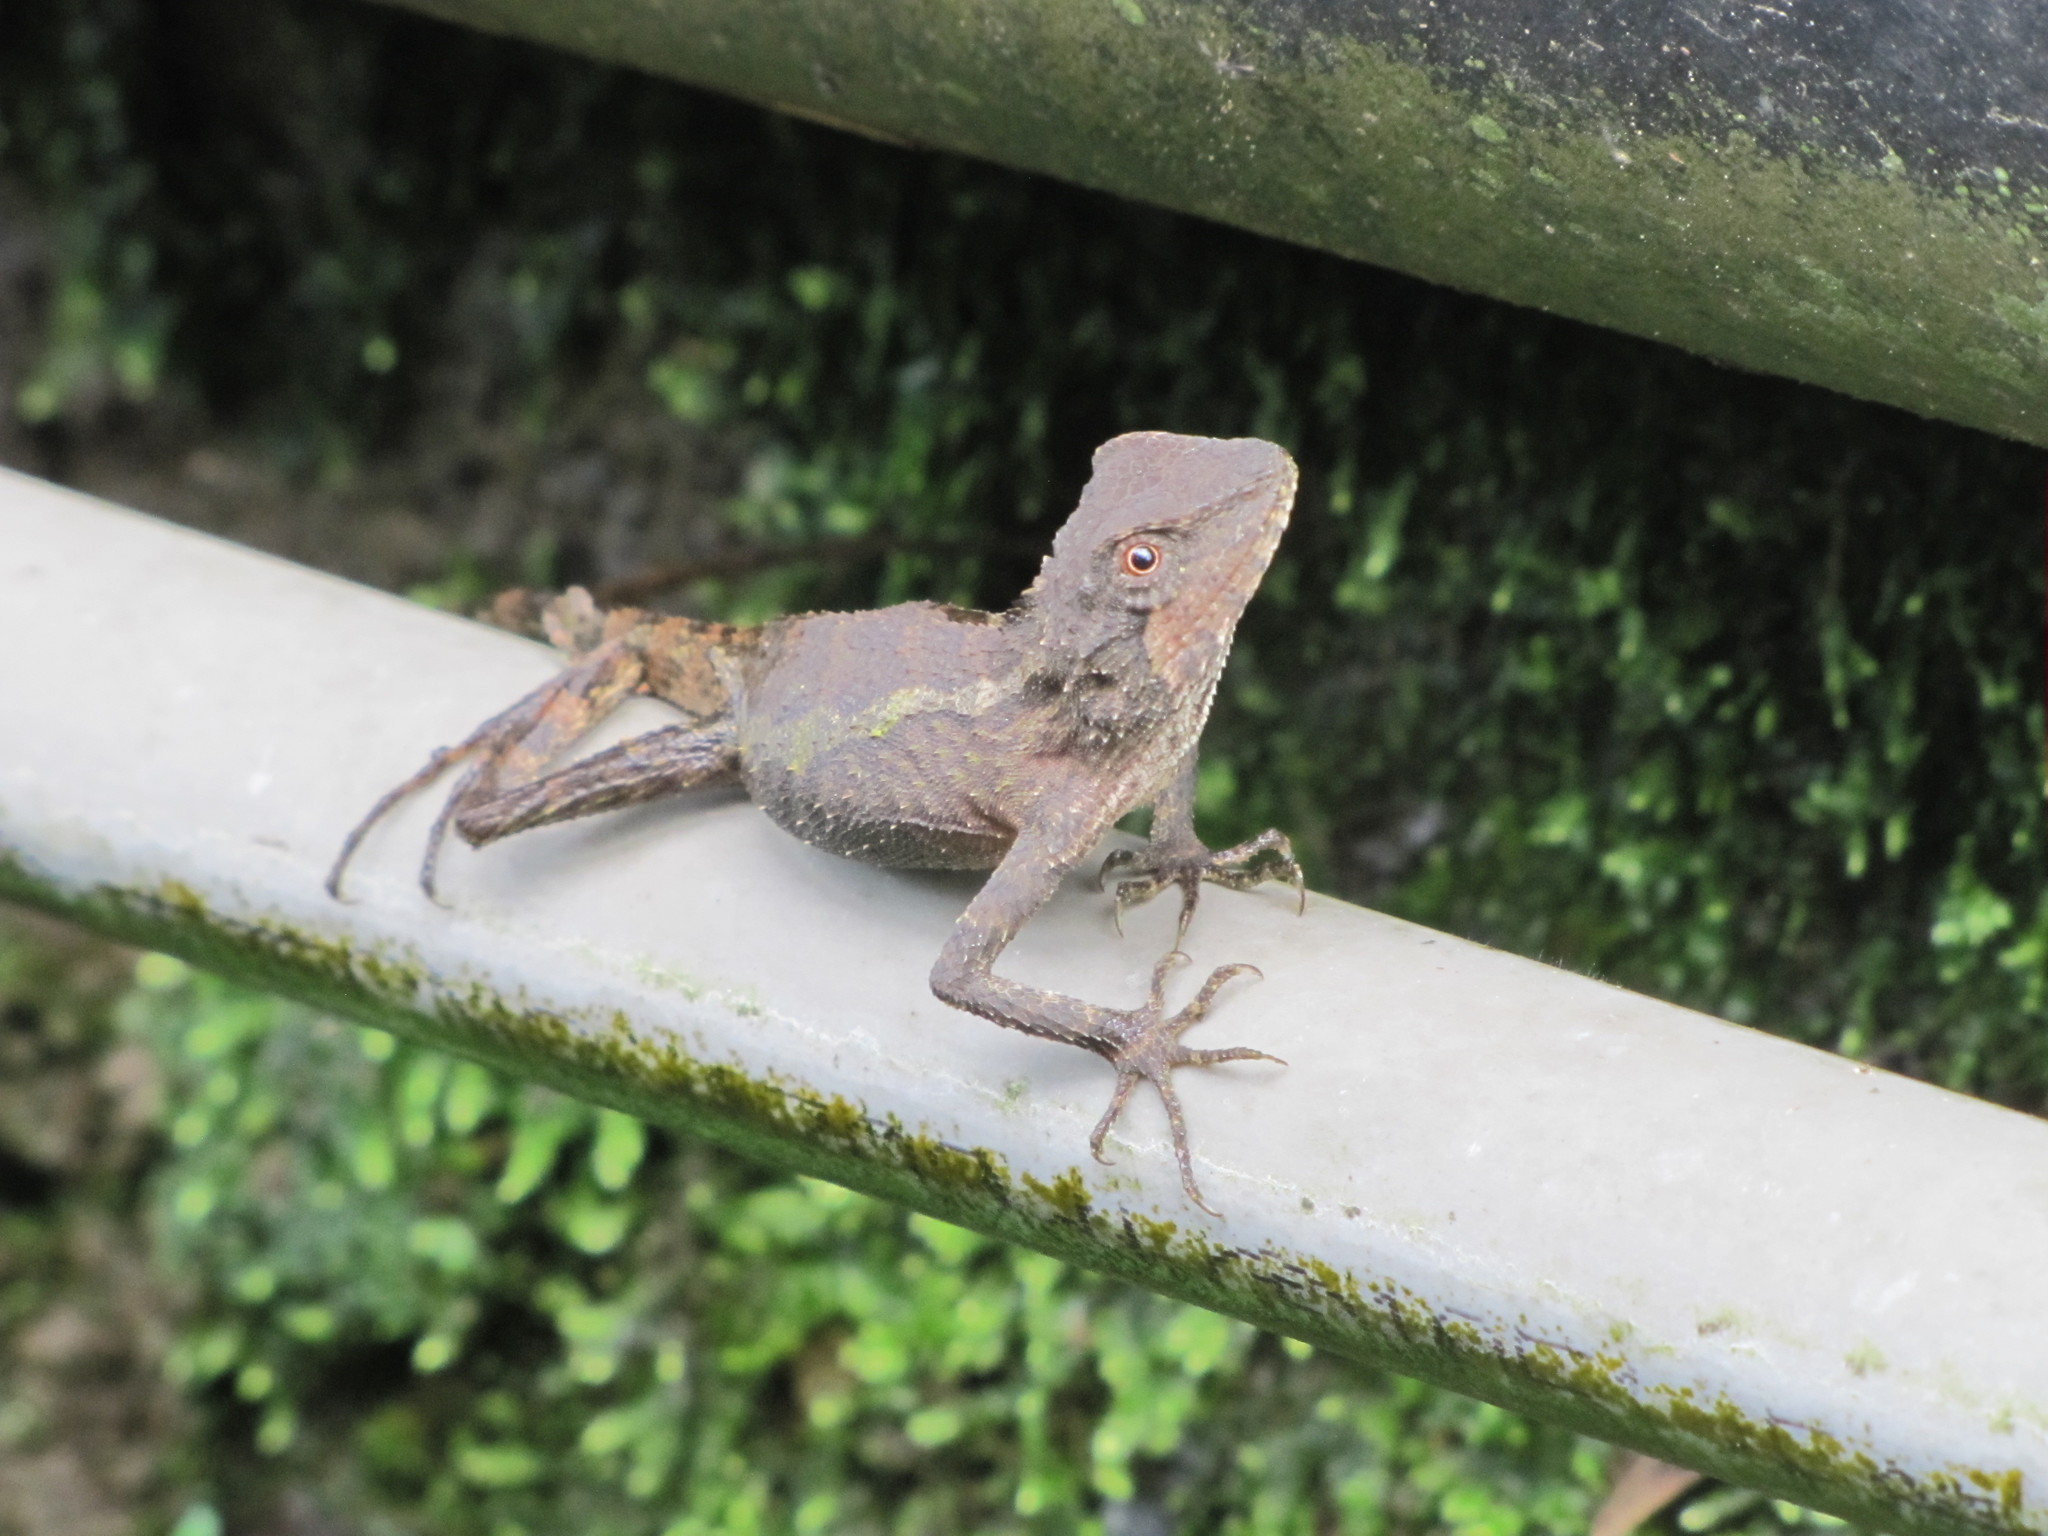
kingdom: Animalia
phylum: Chordata
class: Squamata
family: Agamidae
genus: Diploderma
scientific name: Diploderma swinhonis
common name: Taiwan japalure
